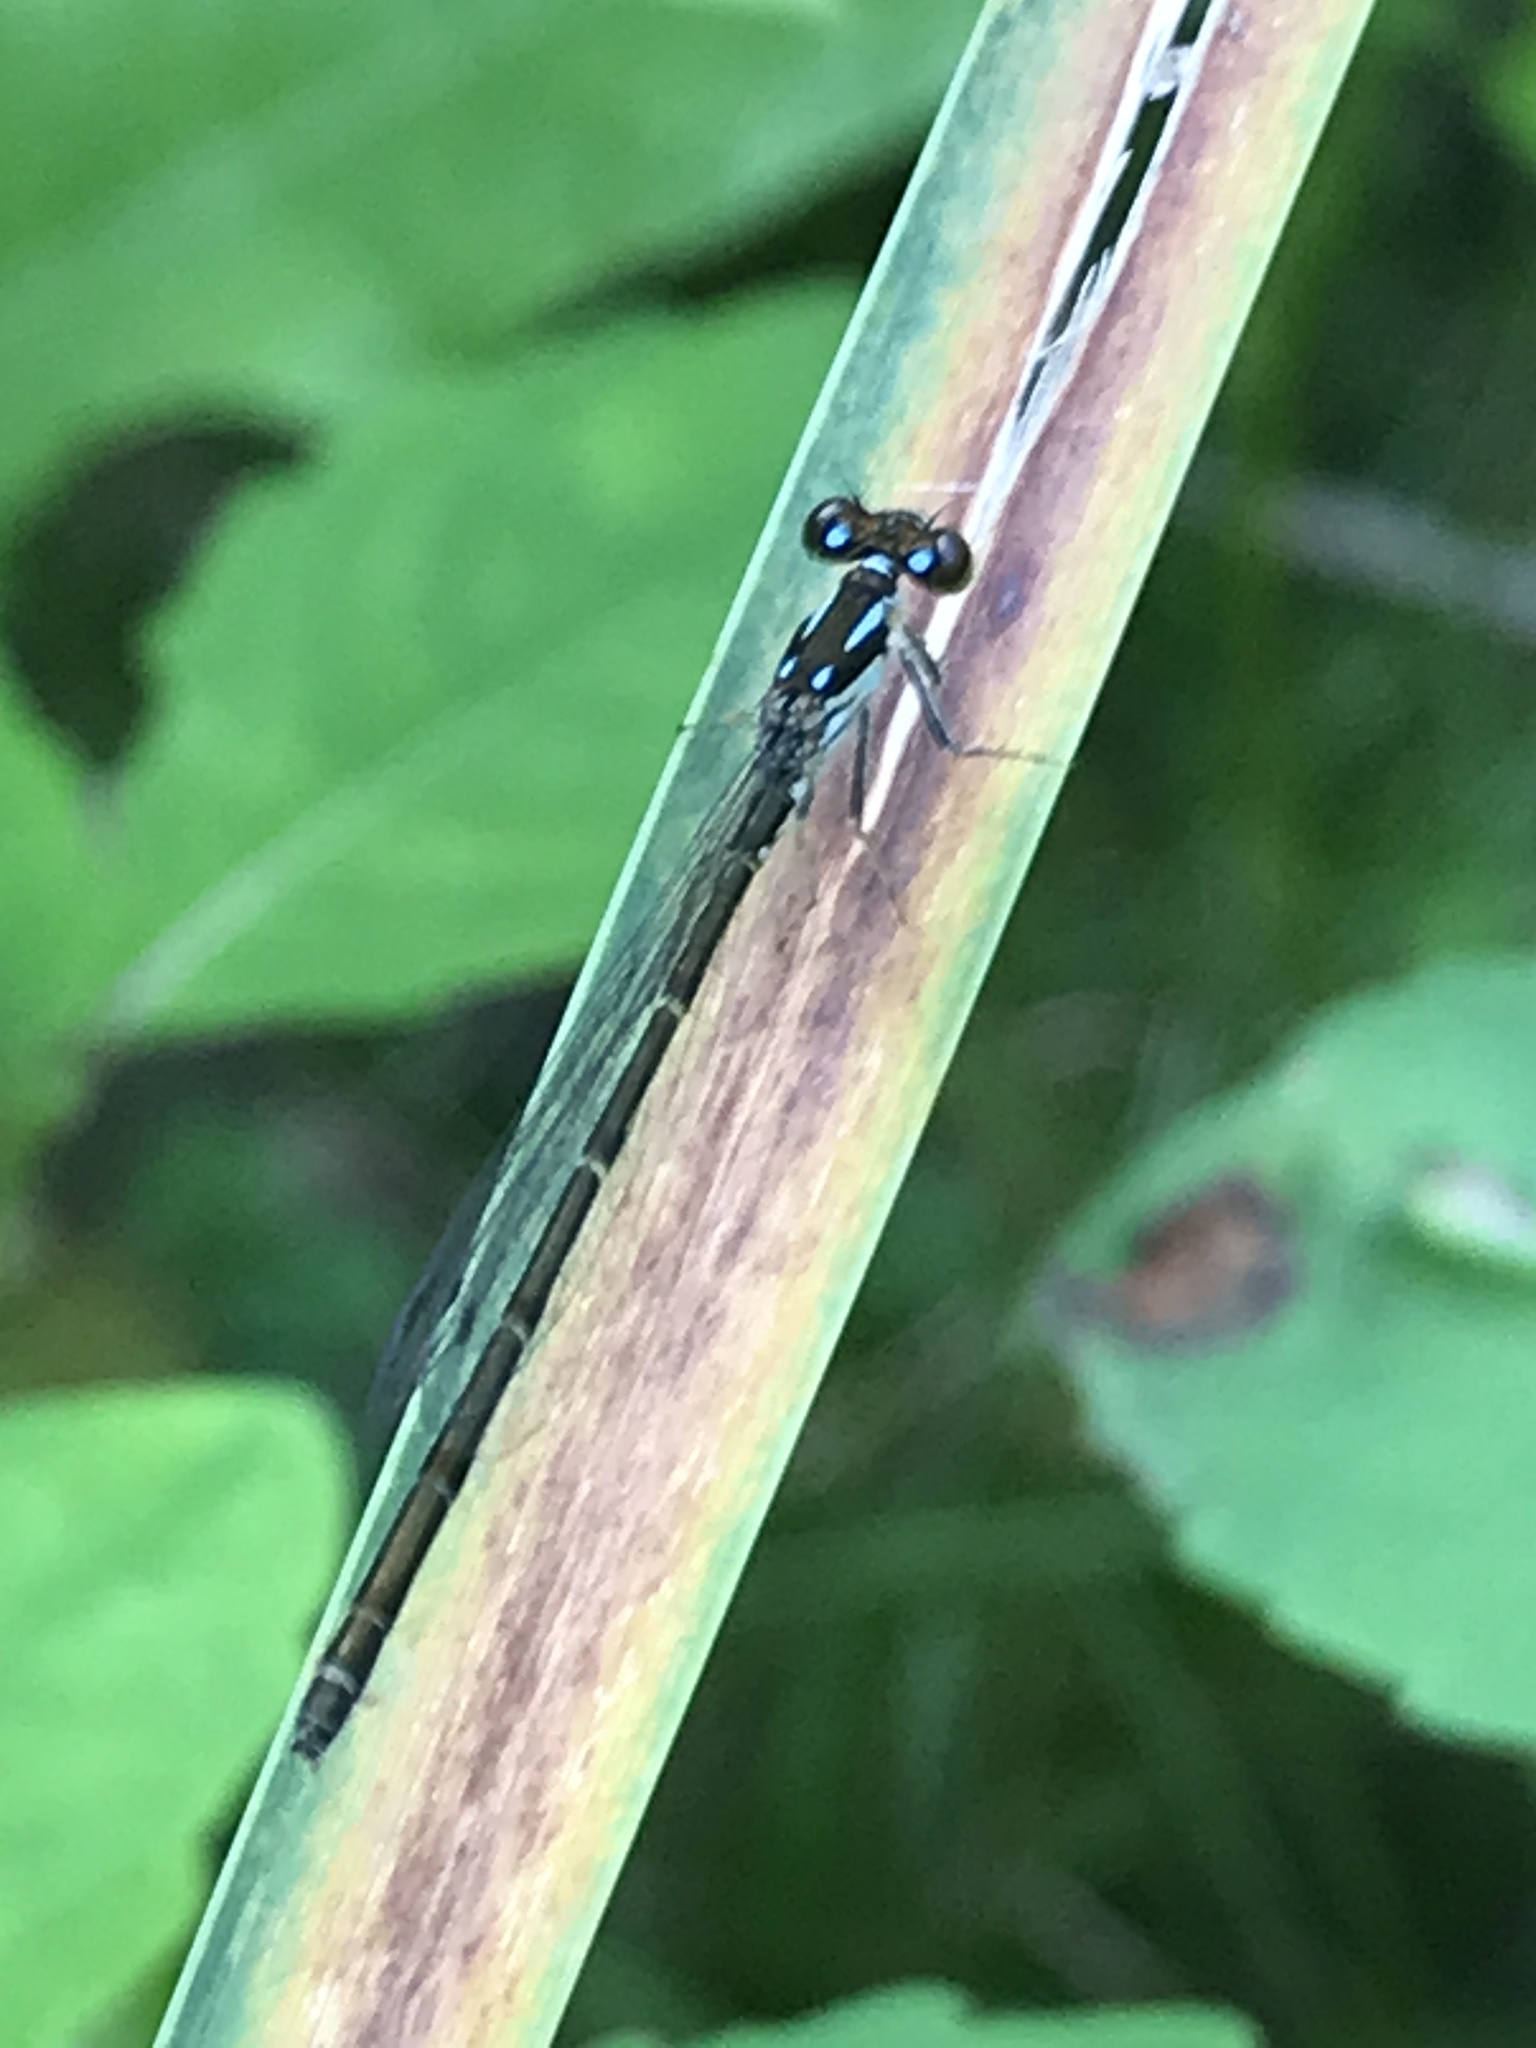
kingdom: Animalia
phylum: Arthropoda
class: Insecta
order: Odonata
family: Coenagrionidae
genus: Ischnura
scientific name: Ischnura posita
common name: Fragile forktail
